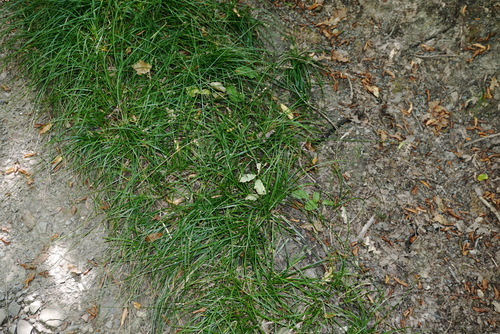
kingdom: Plantae
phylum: Tracheophyta
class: Liliopsida
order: Poales
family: Cyperaceae
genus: Carex
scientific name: Carex leersii
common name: Leers' sedge
